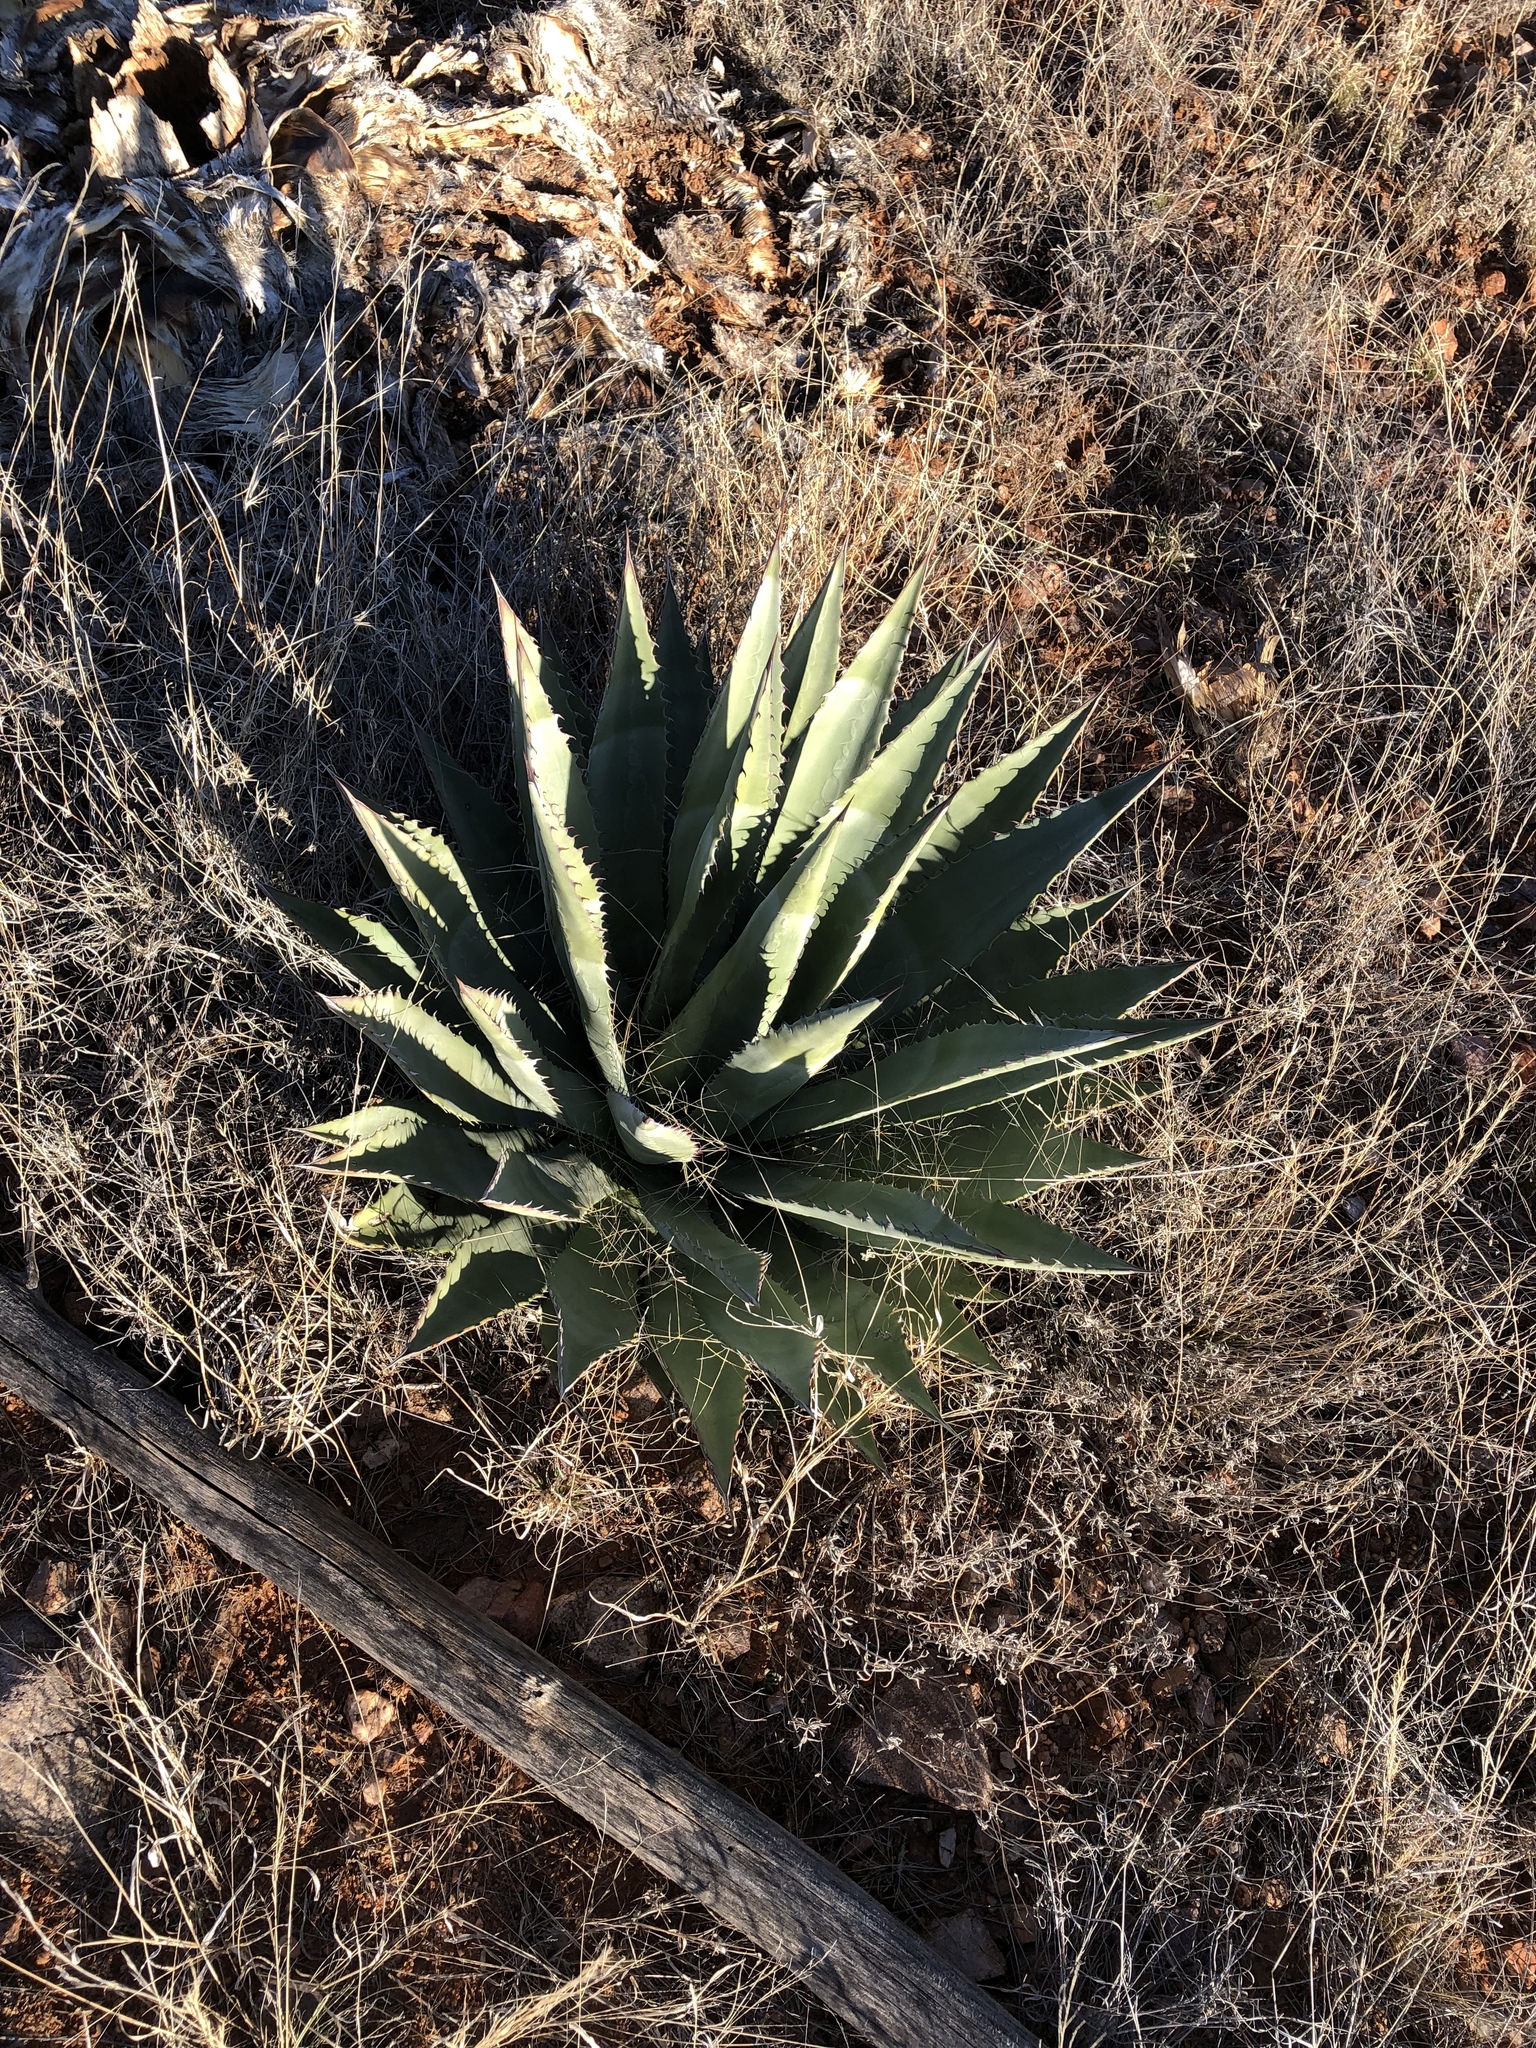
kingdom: Plantae
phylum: Tracheophyta
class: Liliopsida
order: Asparagales
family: Asparagaceae
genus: Agave
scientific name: Agave palmeri
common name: Palmer agave
